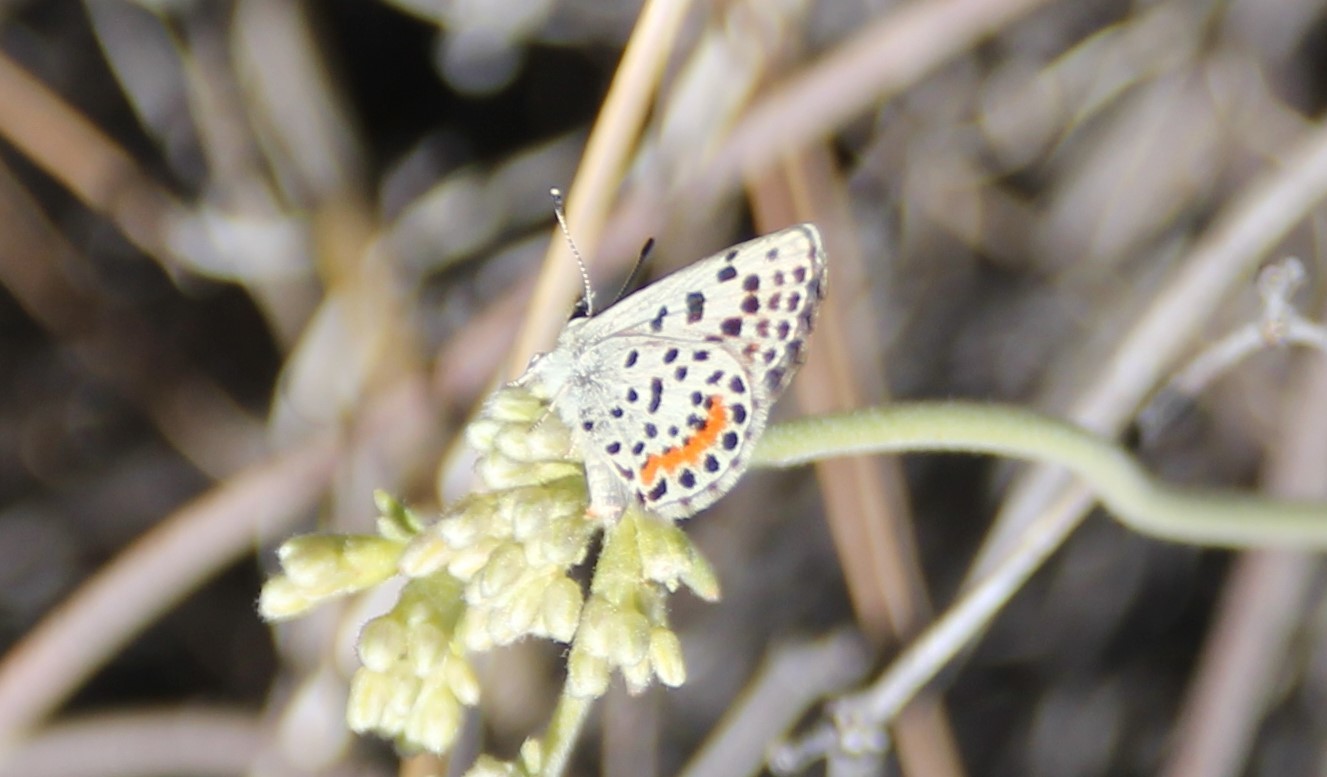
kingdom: Animalia
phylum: Arthropoda
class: Insecta
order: Lepidoptera
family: Lycaenidae
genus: Philotes
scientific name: Philotes bernardino
